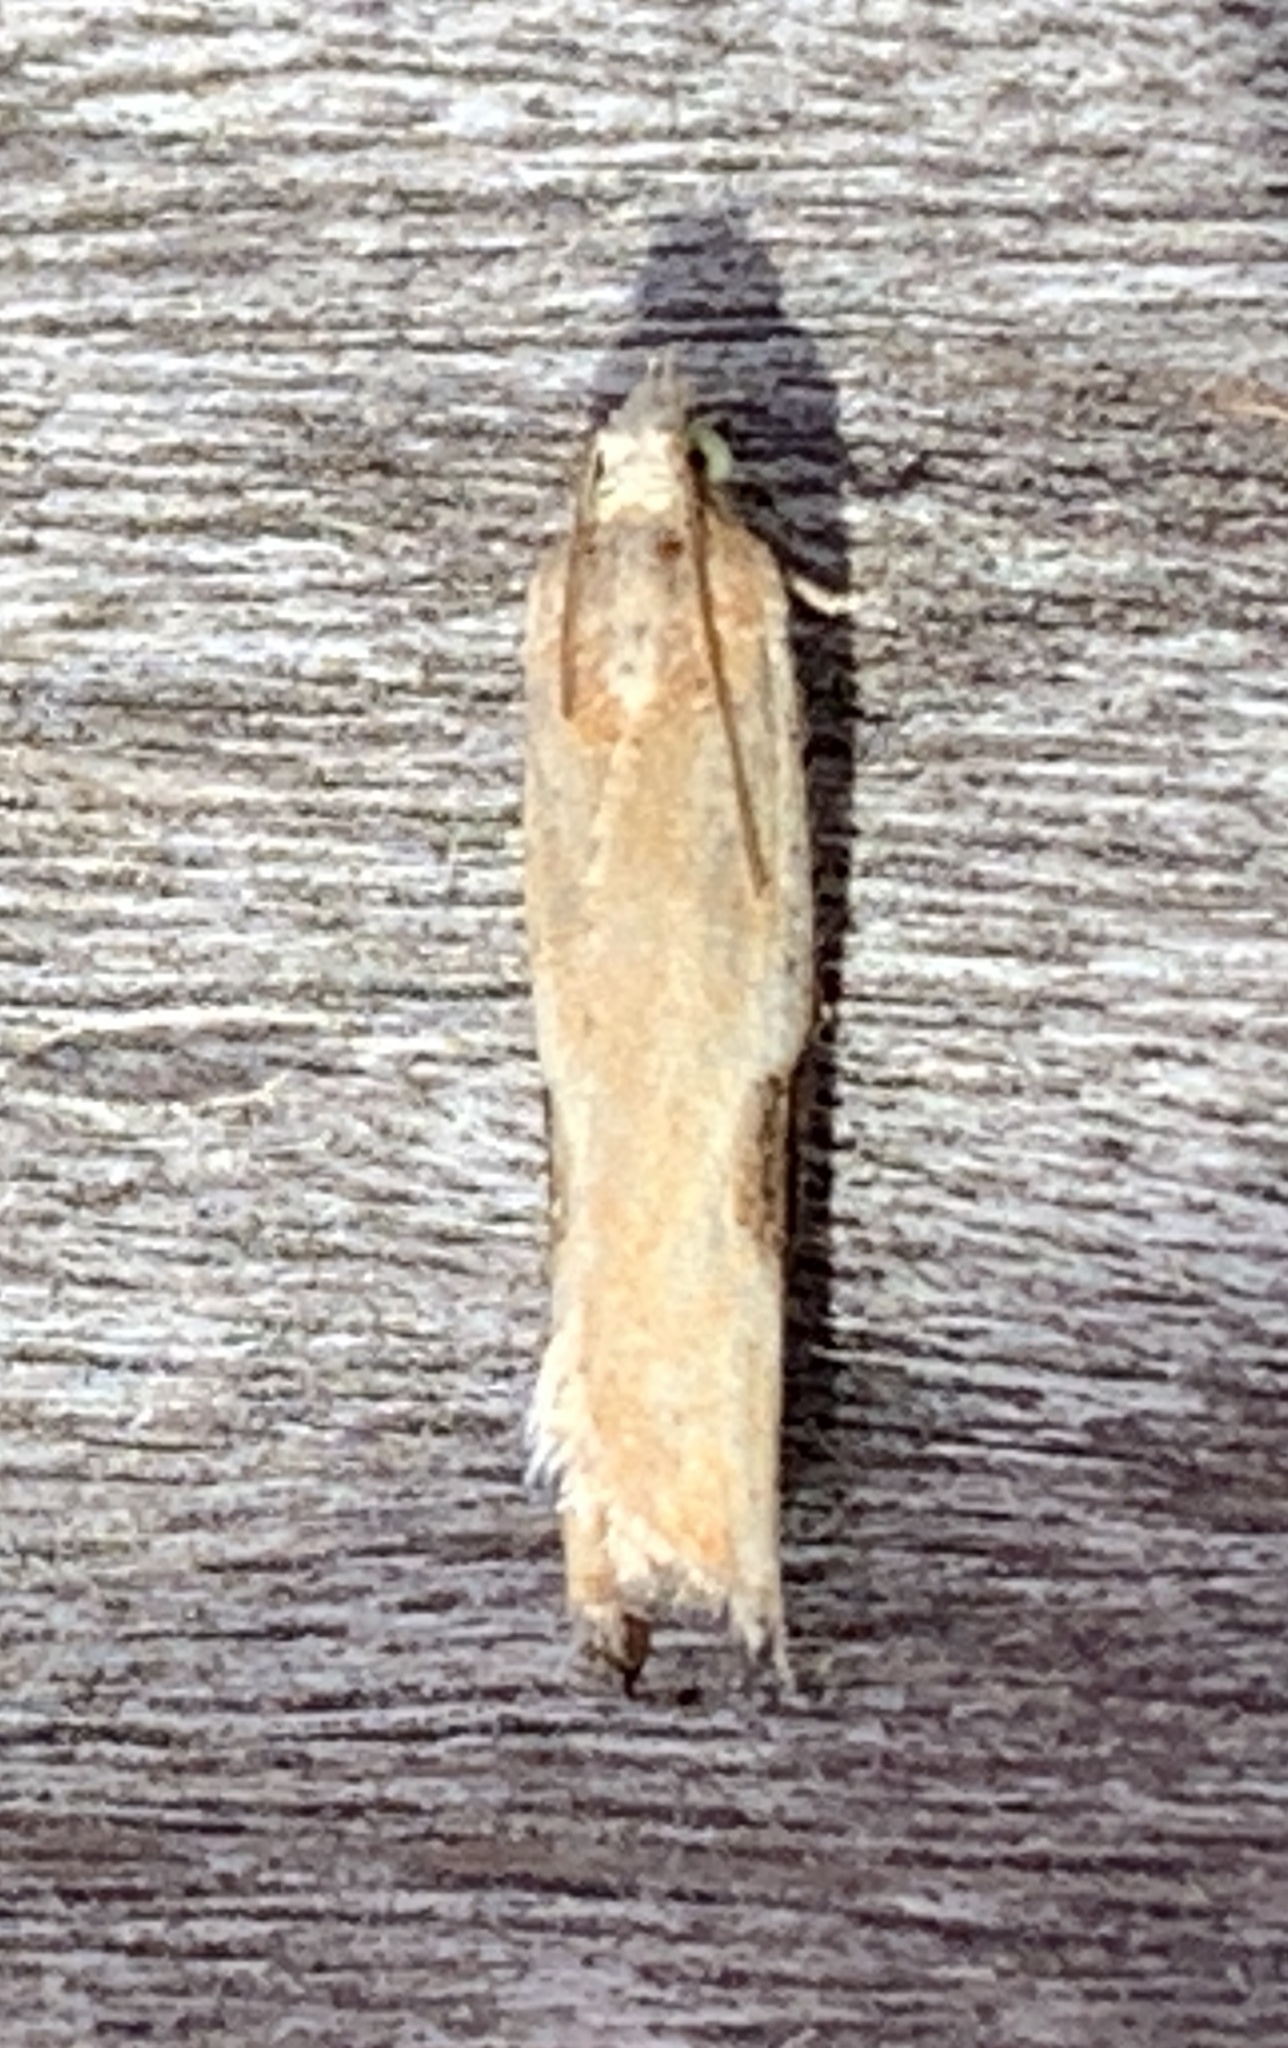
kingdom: Animalia
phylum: Arthropoda
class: Insecta
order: Lepidoptera
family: Tortricidae
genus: Pseudexentera
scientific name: Pseudexentera costomaculana
